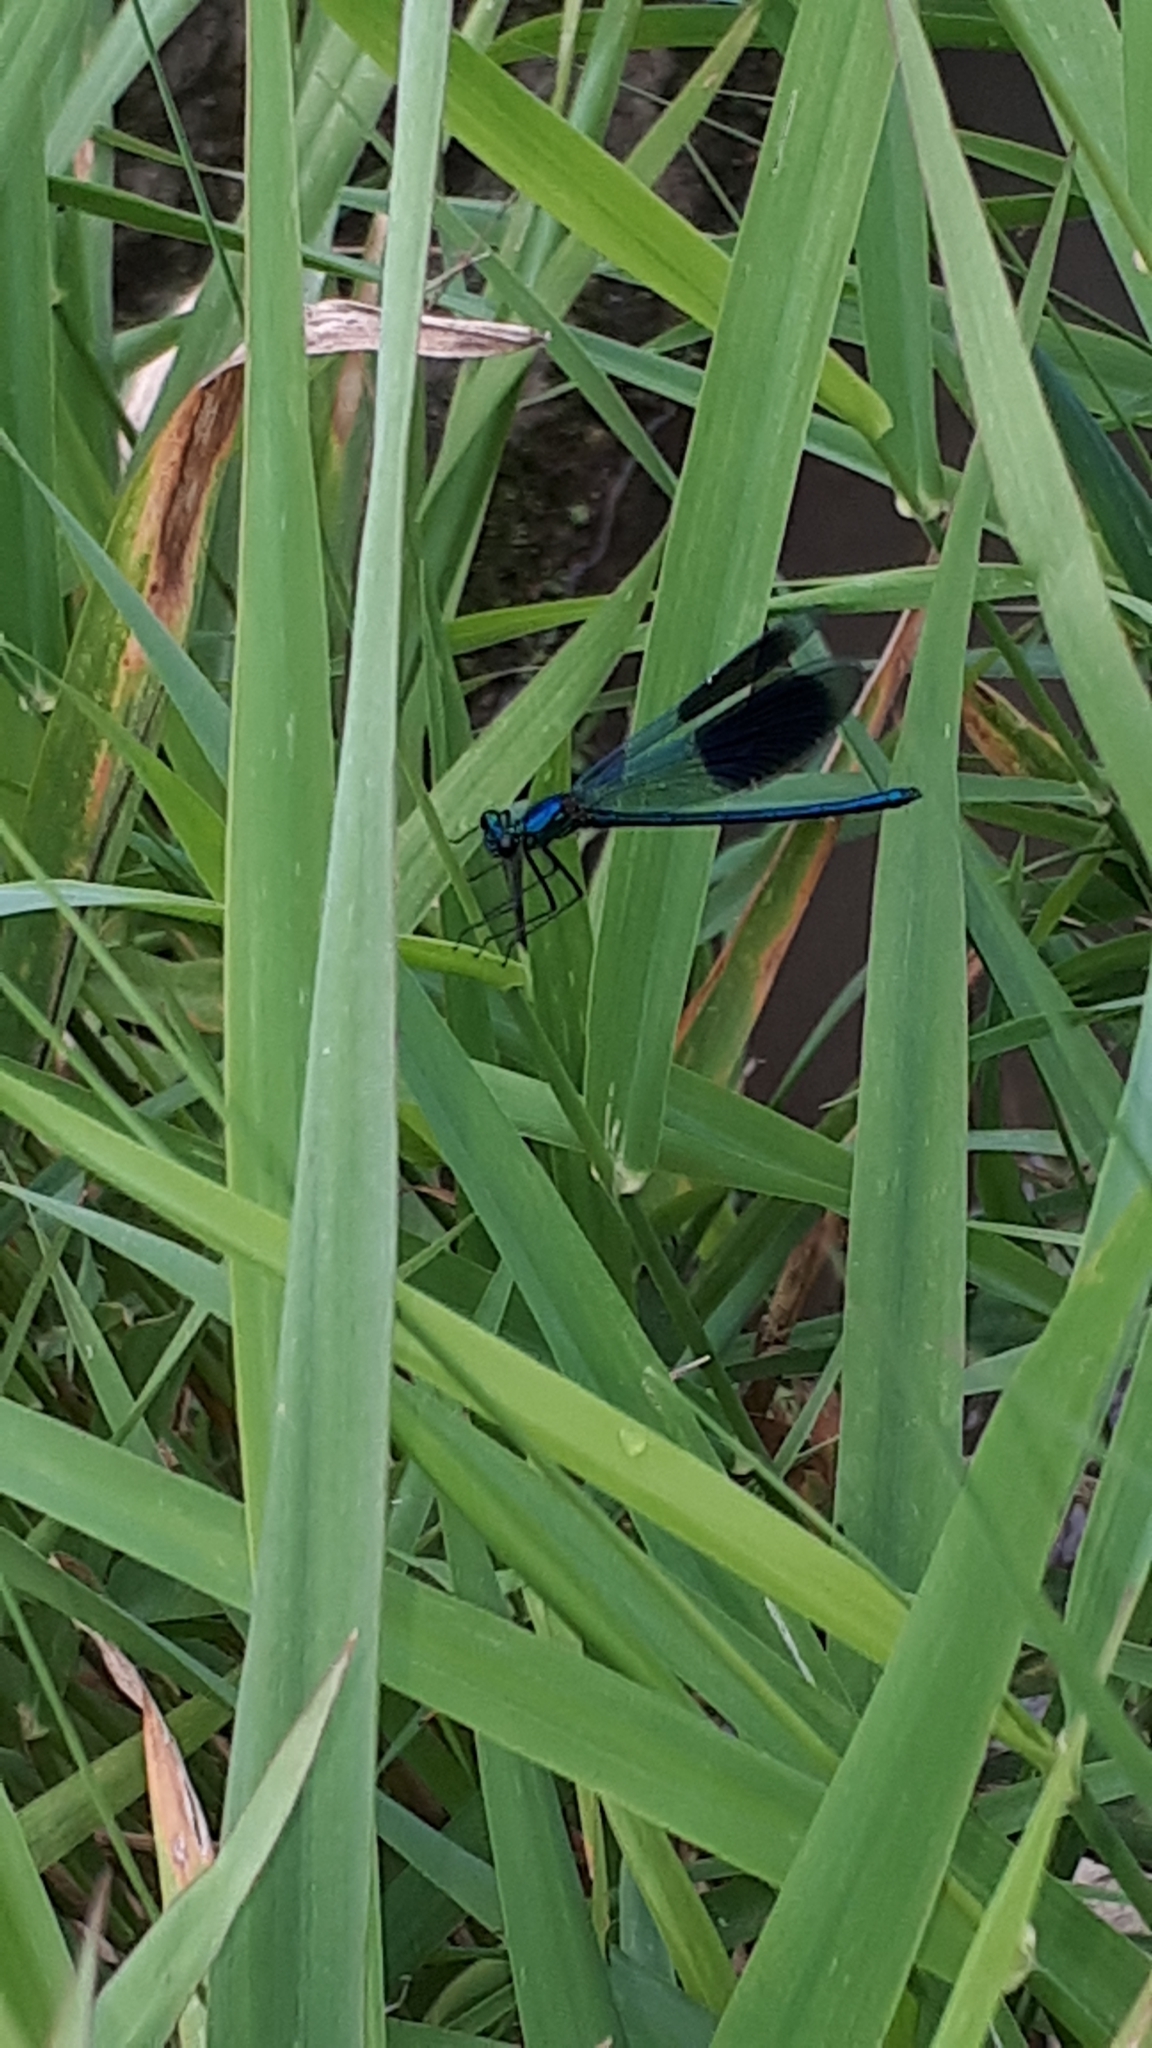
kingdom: Animalia
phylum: Arthropoda
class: Insecta
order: Odonata
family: Calopterygidae
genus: Calopteryx
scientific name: Calopteryx splendens
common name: Banded demoiselle
